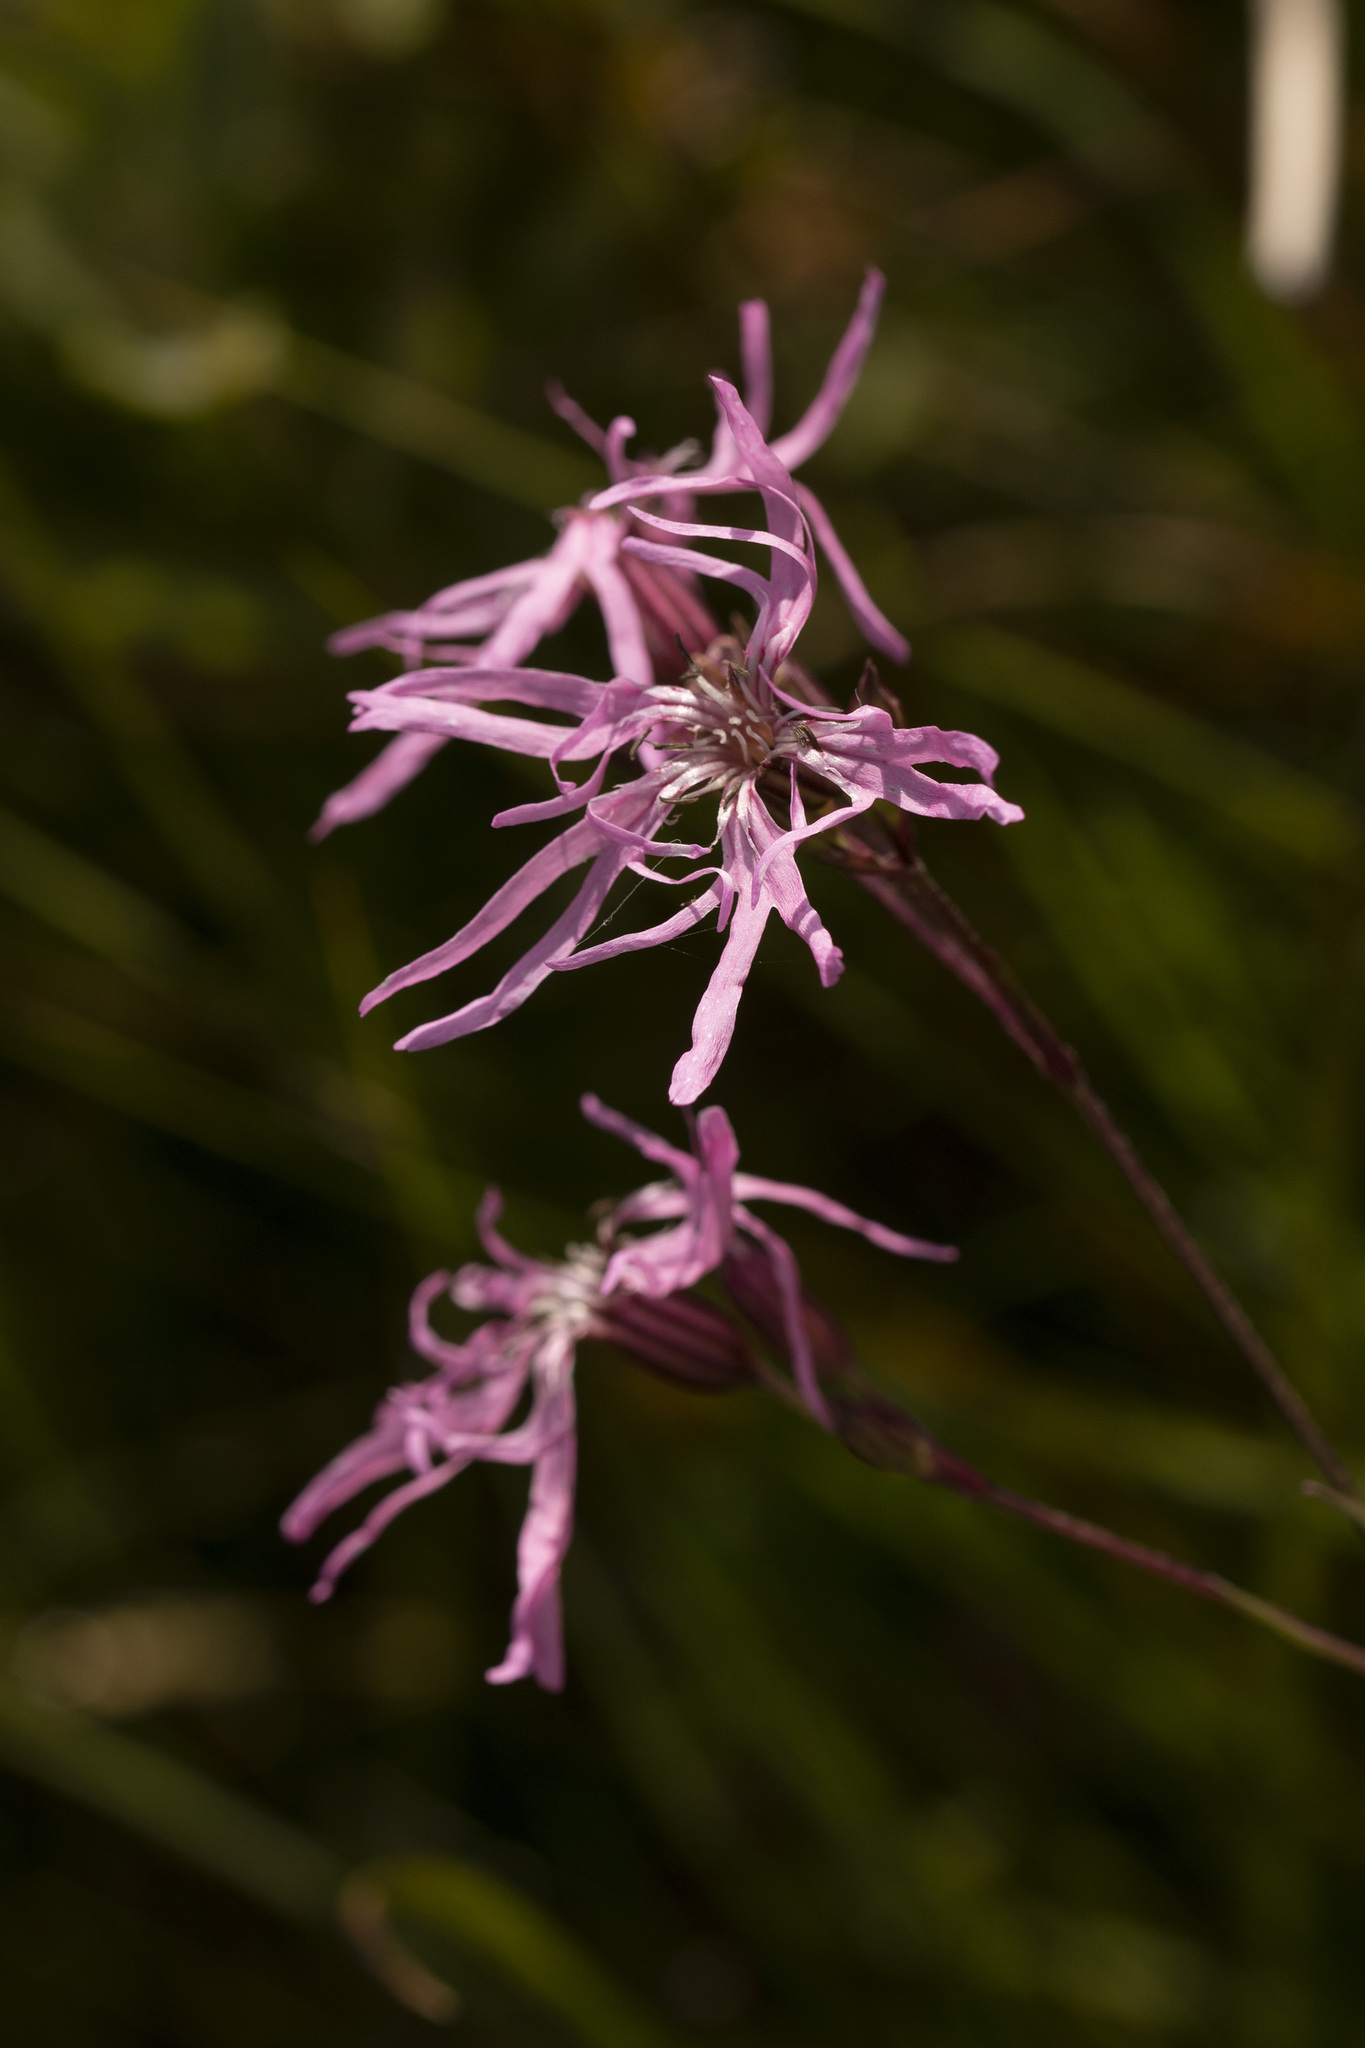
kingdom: Plantae
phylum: Tracheophyta
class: Magnoliopsida
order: Caryophyllales
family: Caryophyllaceae
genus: Silene
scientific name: Silene flos-cuculi
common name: Ragged-robin
